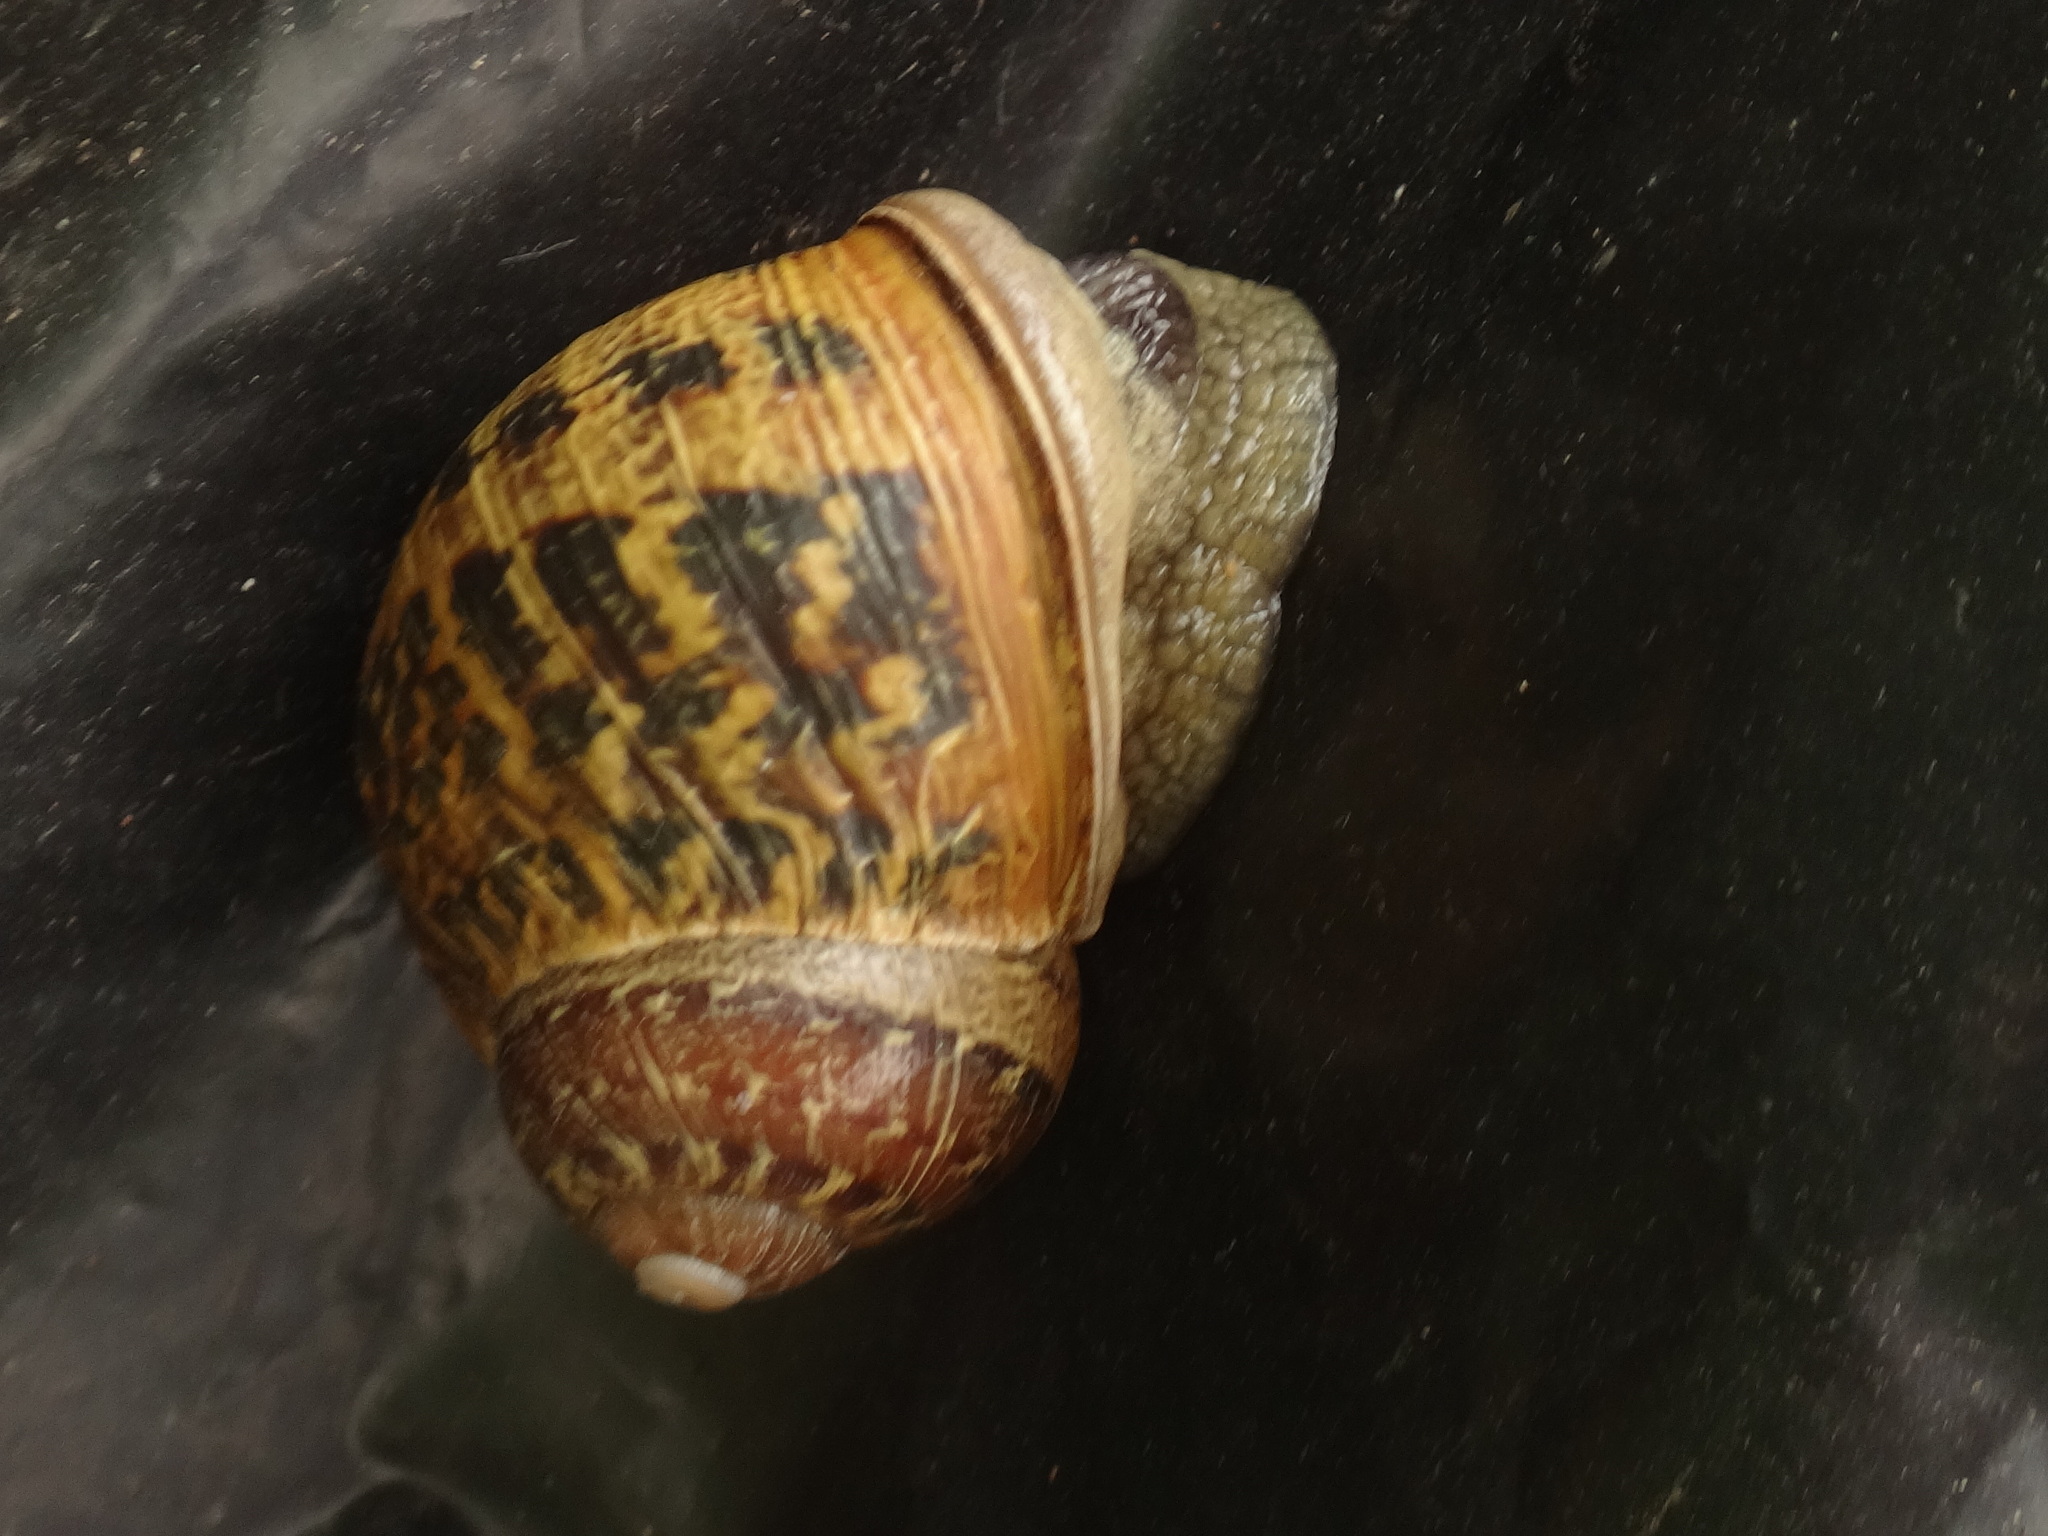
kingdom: Animalia
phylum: Mollusca
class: Gastropoda
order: Stylommatophora
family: Helicidae
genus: Cornu
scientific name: Cornu aspersum
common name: Brown garden snail
